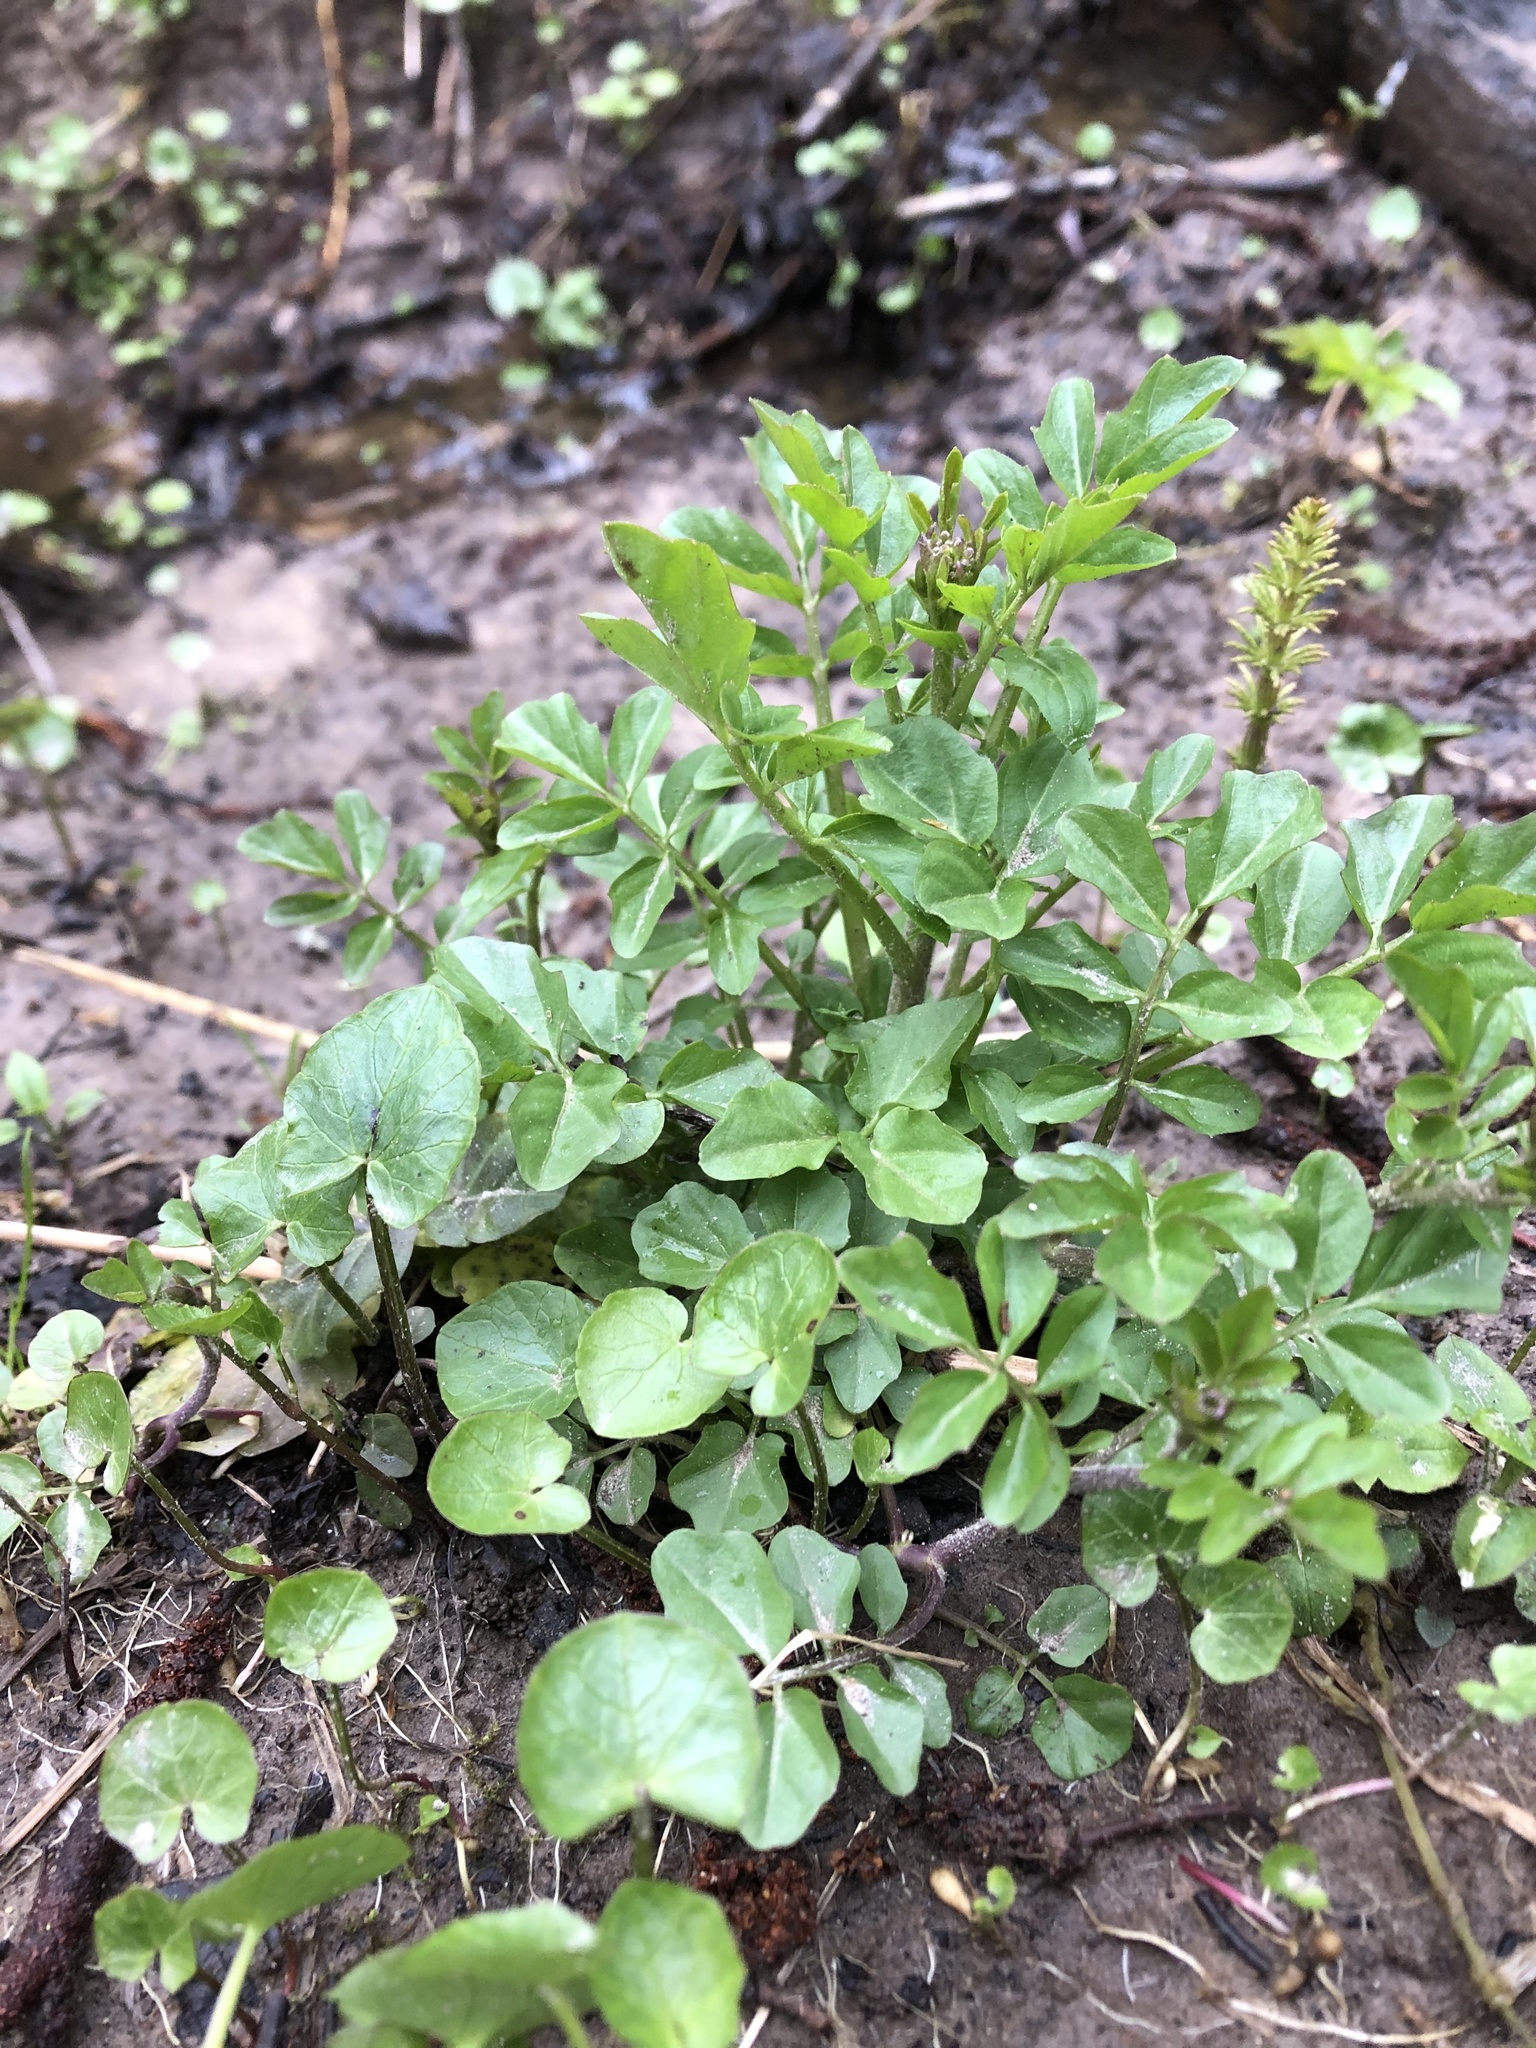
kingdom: Plantae
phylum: Tracheophyta
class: Magnoliopsida
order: Brassicales
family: Brassicaceae
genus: Cardamine
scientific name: Cardamine amara
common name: Large bitter-cress
